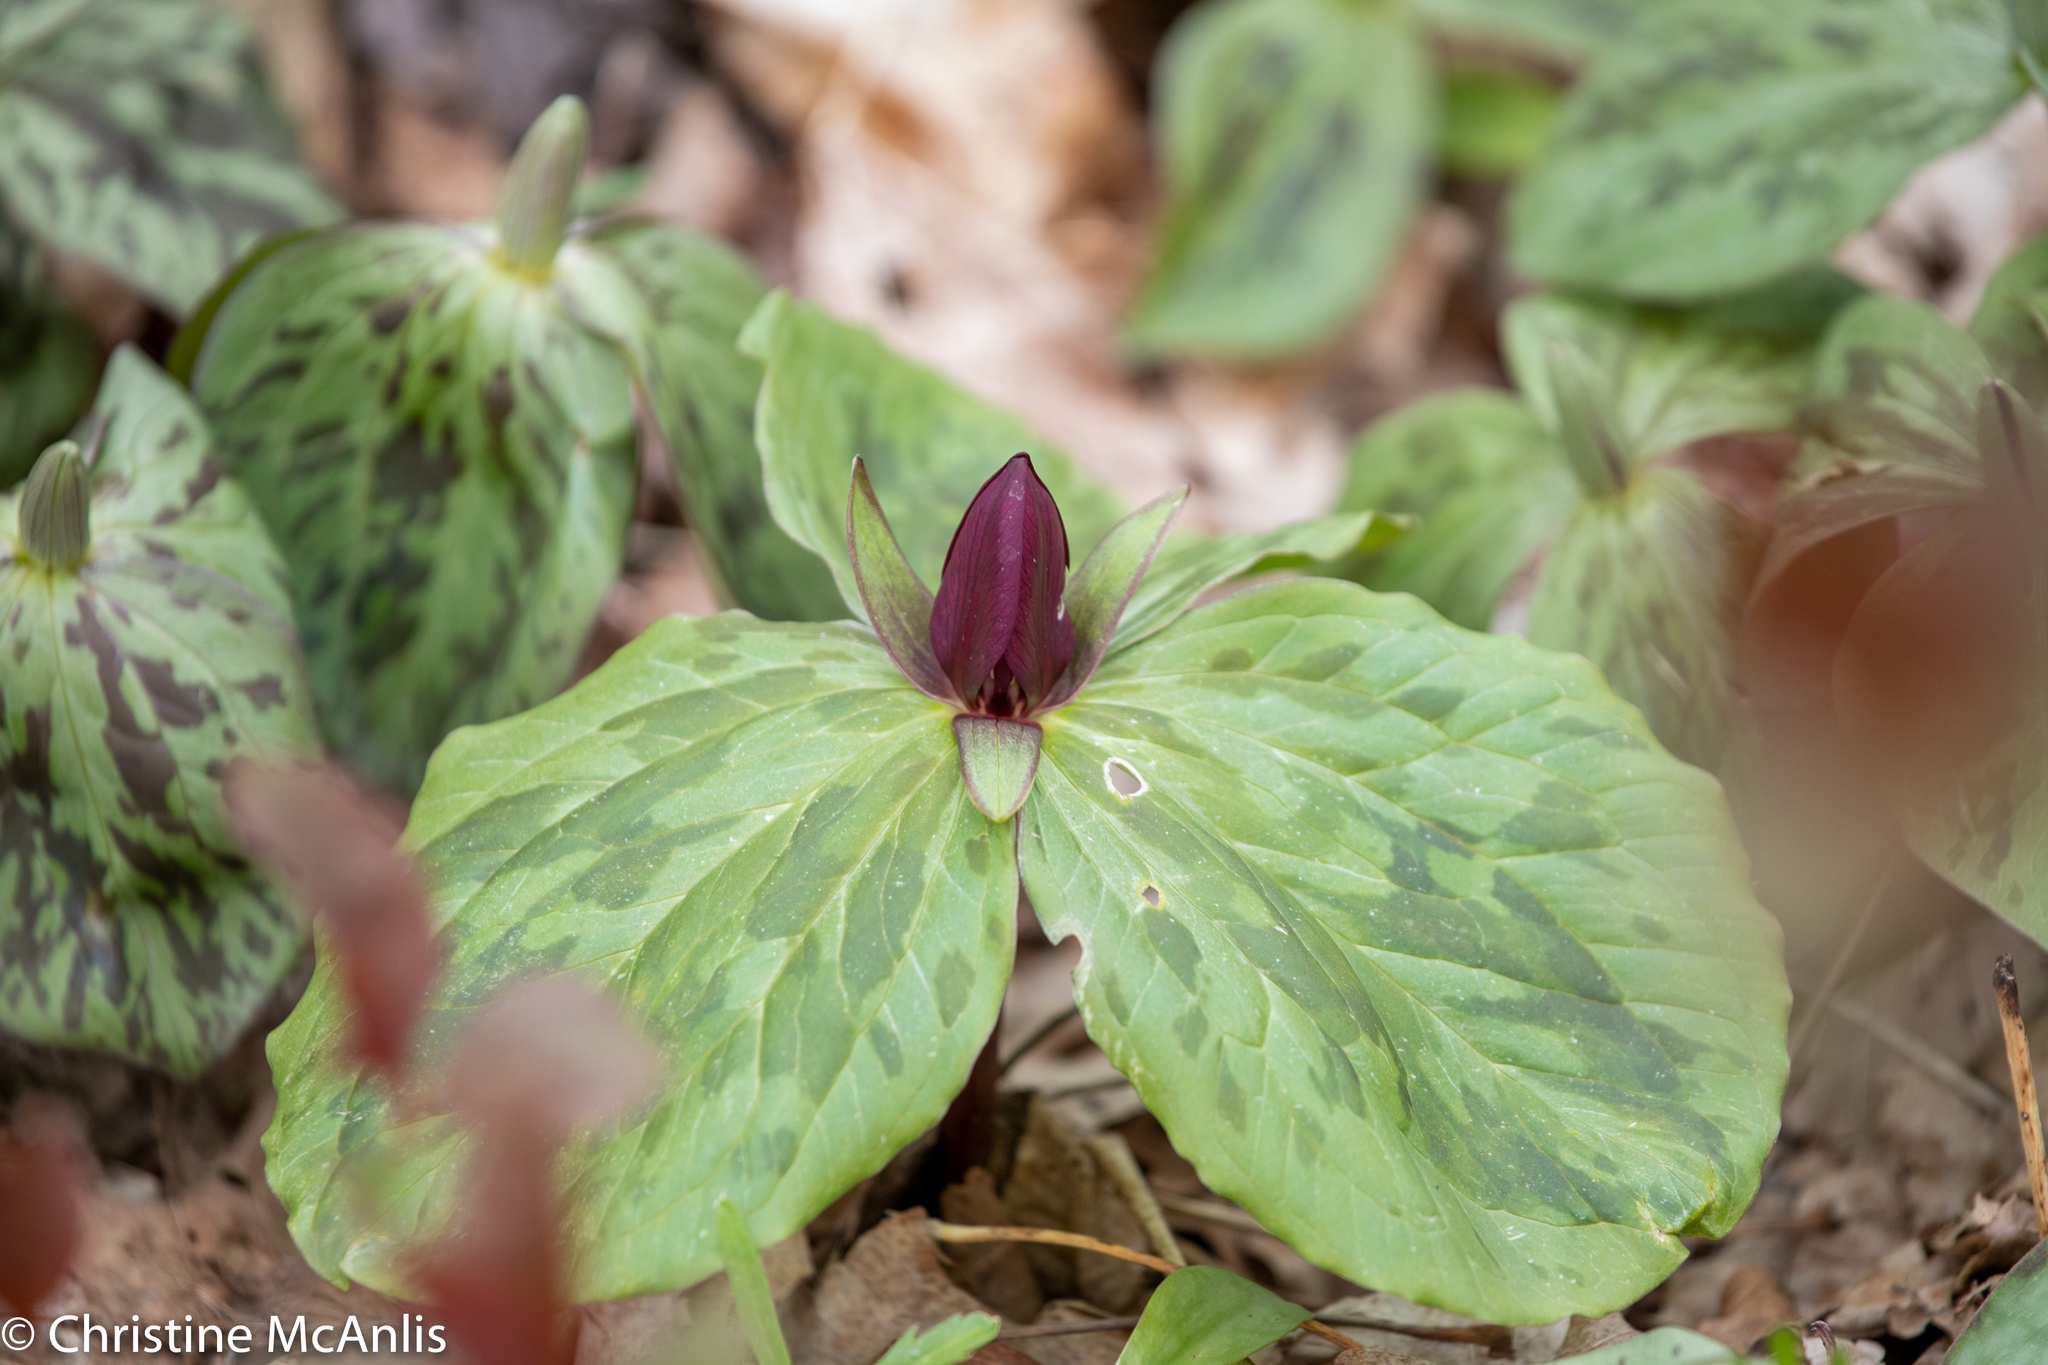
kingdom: Plantae
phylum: Tracheophyta
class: Liliopsida
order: Liliales
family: Melanthiaceae
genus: Trillium
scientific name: Trillium sessile
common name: Sessile trillium
